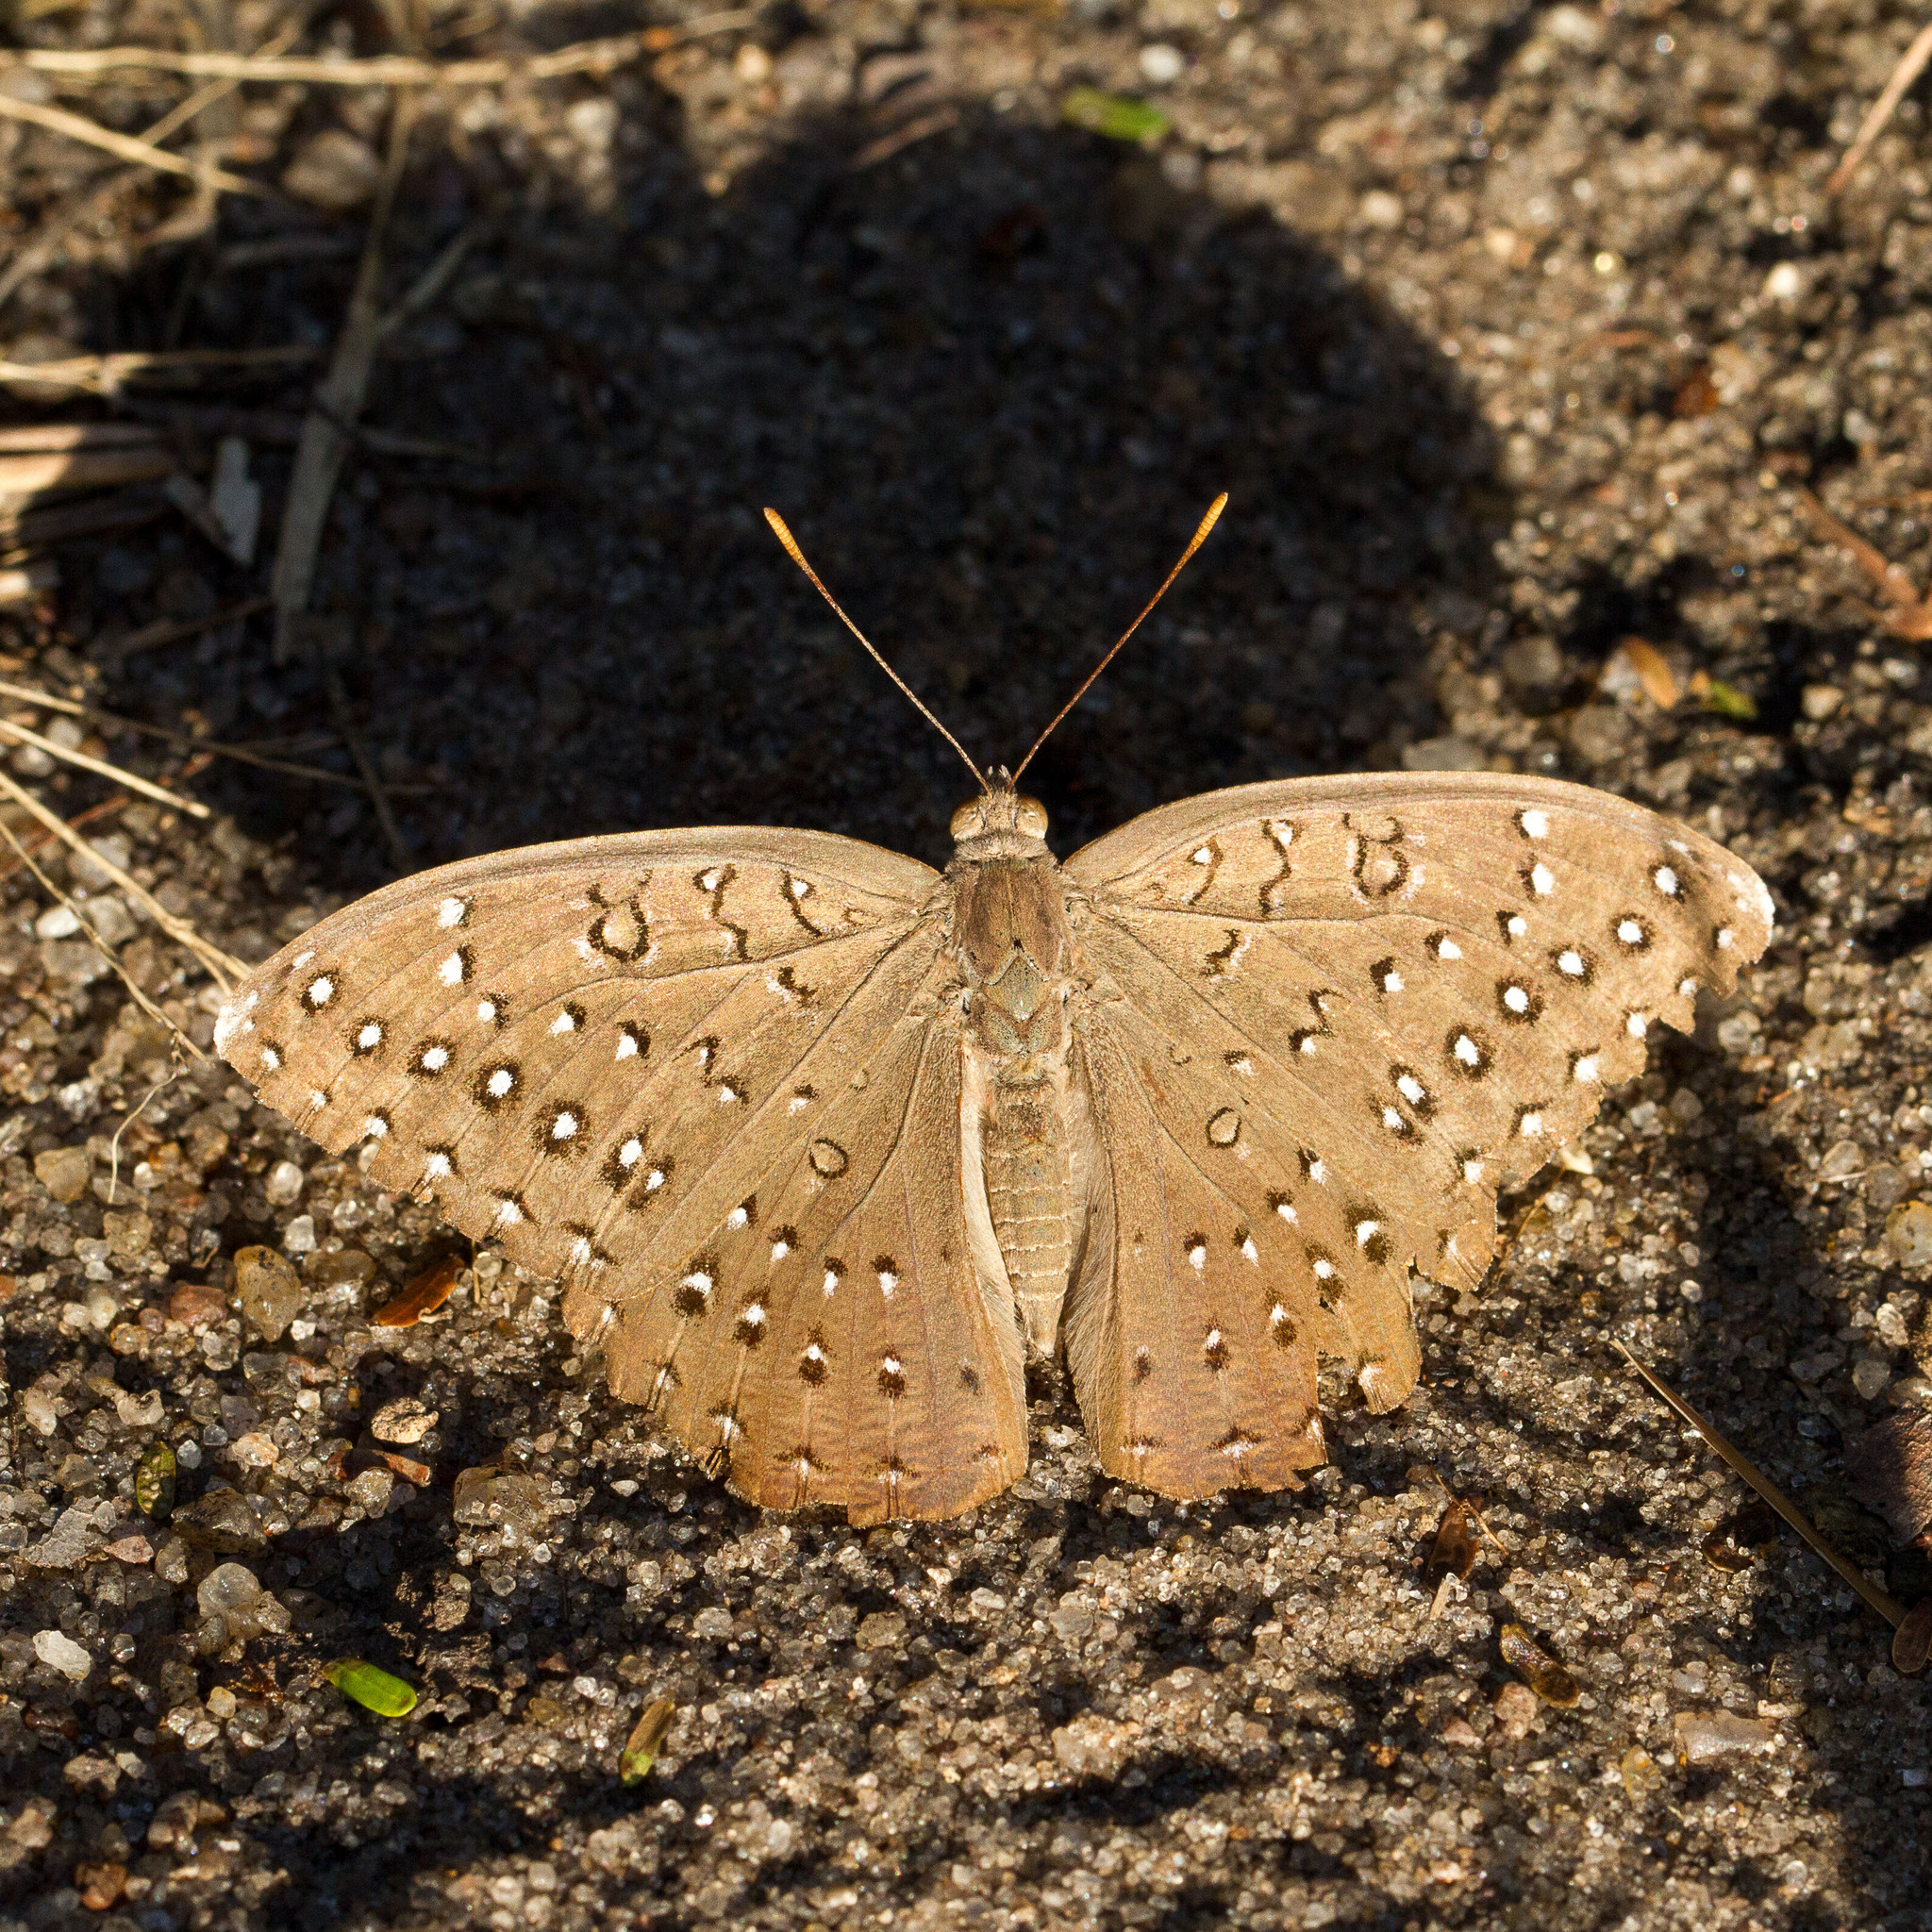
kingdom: Animalia
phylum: Arthropoda
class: Insecta
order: Lepidoptera
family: Nymphalidae
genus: Hamanumida
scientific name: Hamanumida daedalus
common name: Guinea-fowl butterfly
